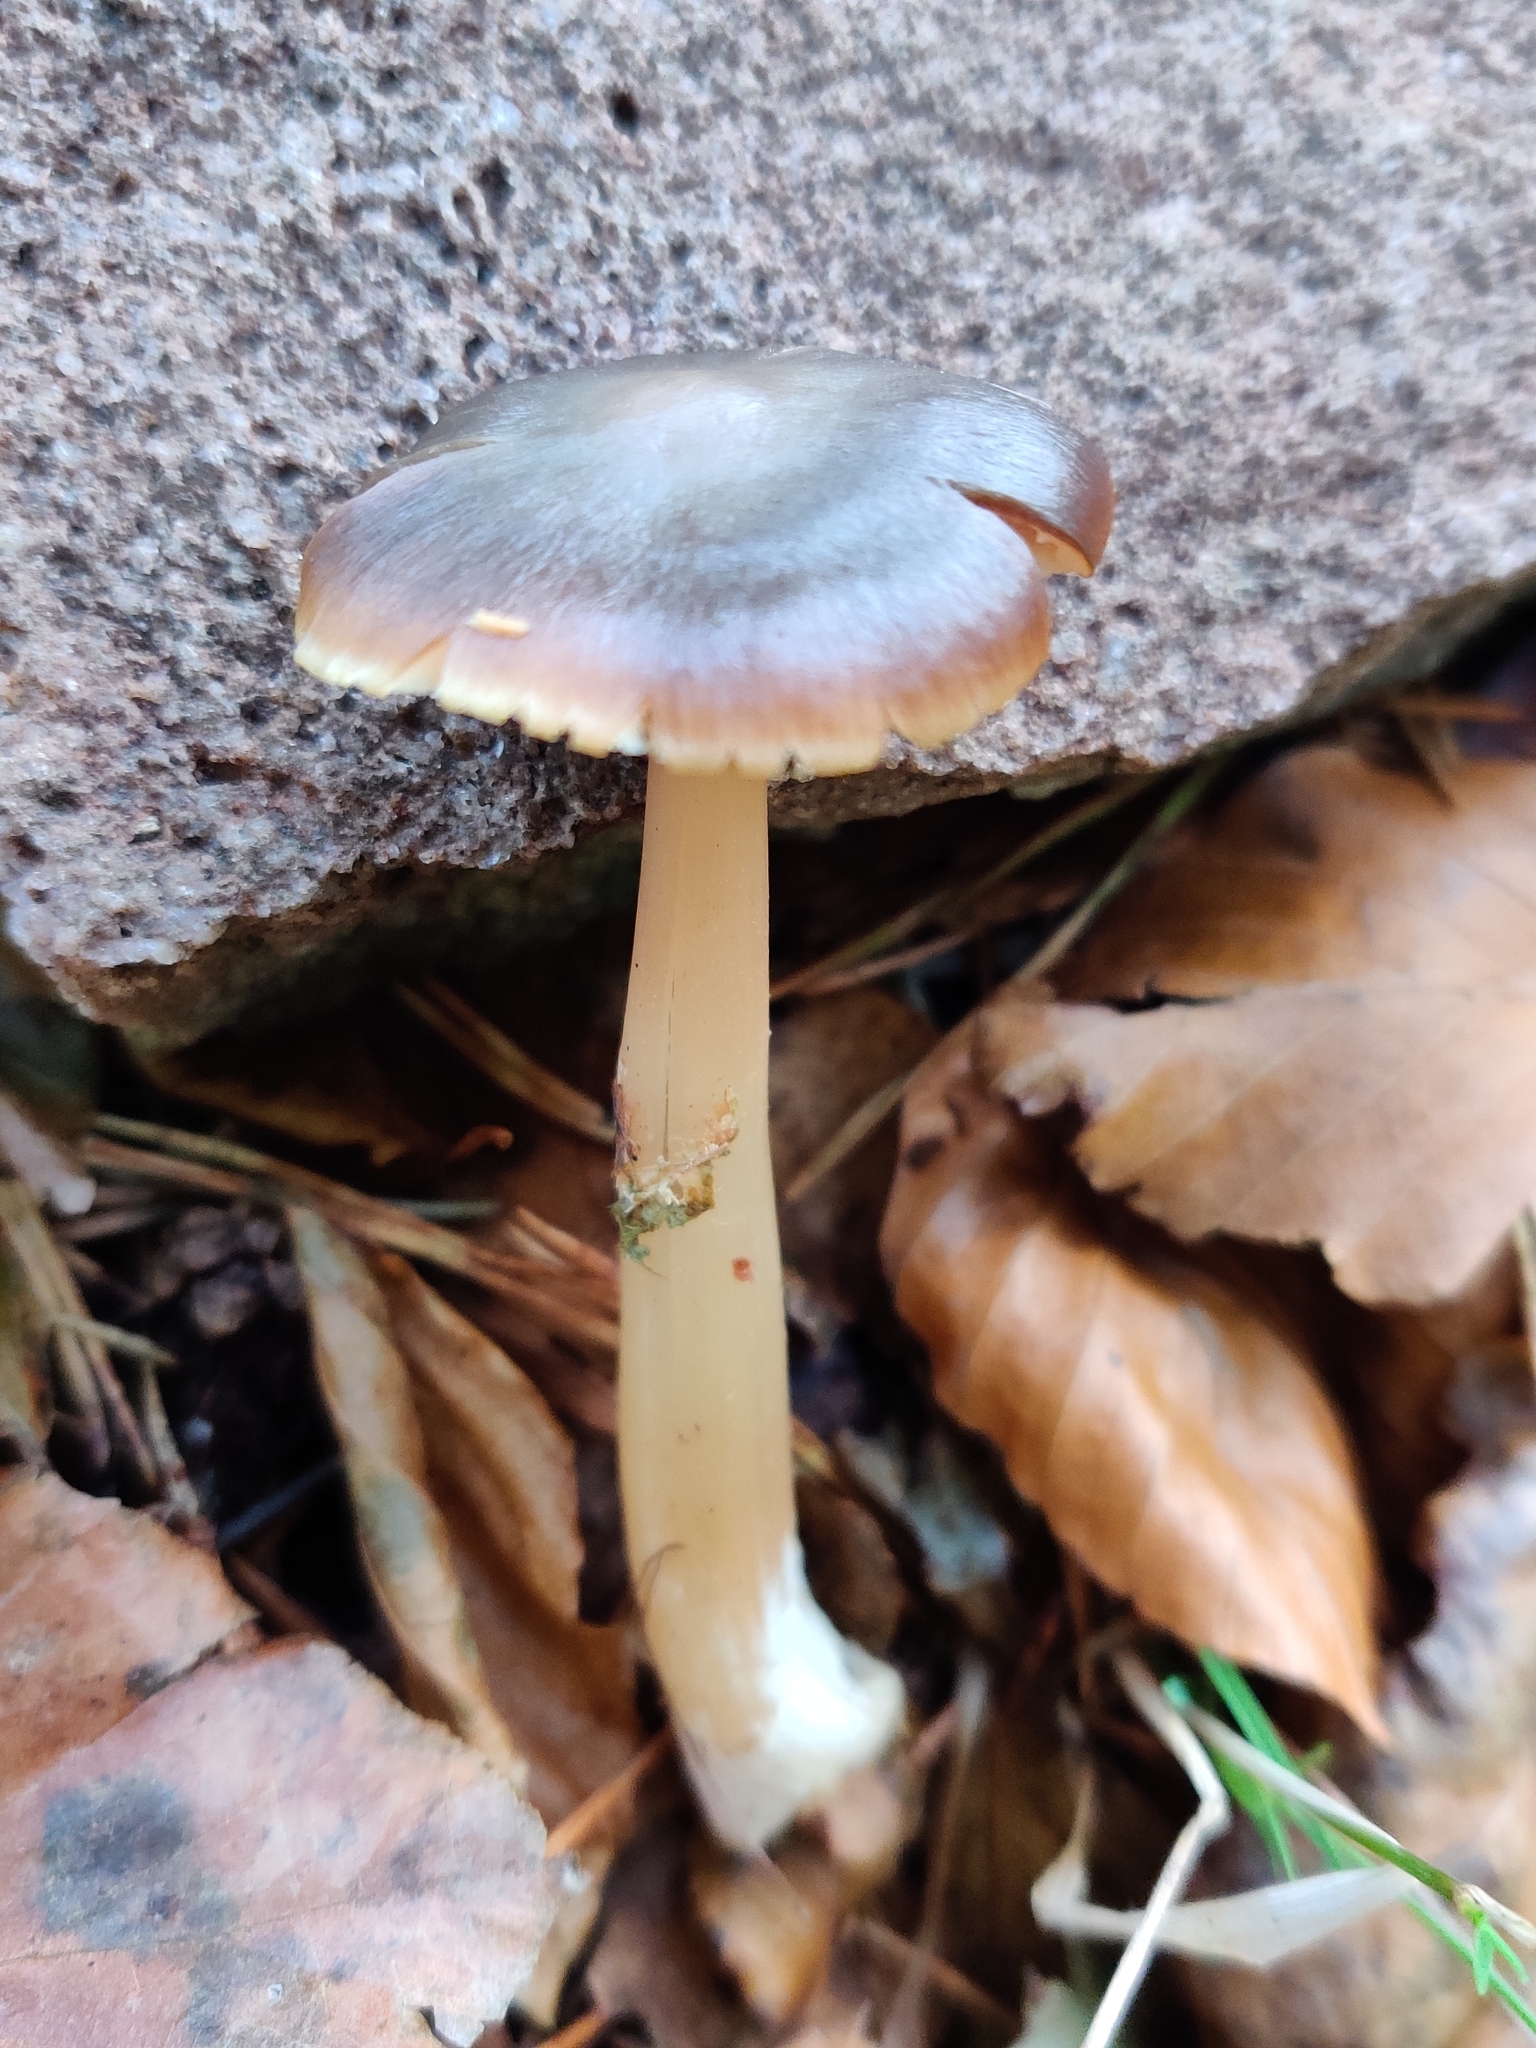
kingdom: Fungi
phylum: Basidiomycota
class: Agaricomycetes
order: Agaricales
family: Omphalotaceae
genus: Rhodocollybia
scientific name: Rhodocollybia butyracea
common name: Butter cap
